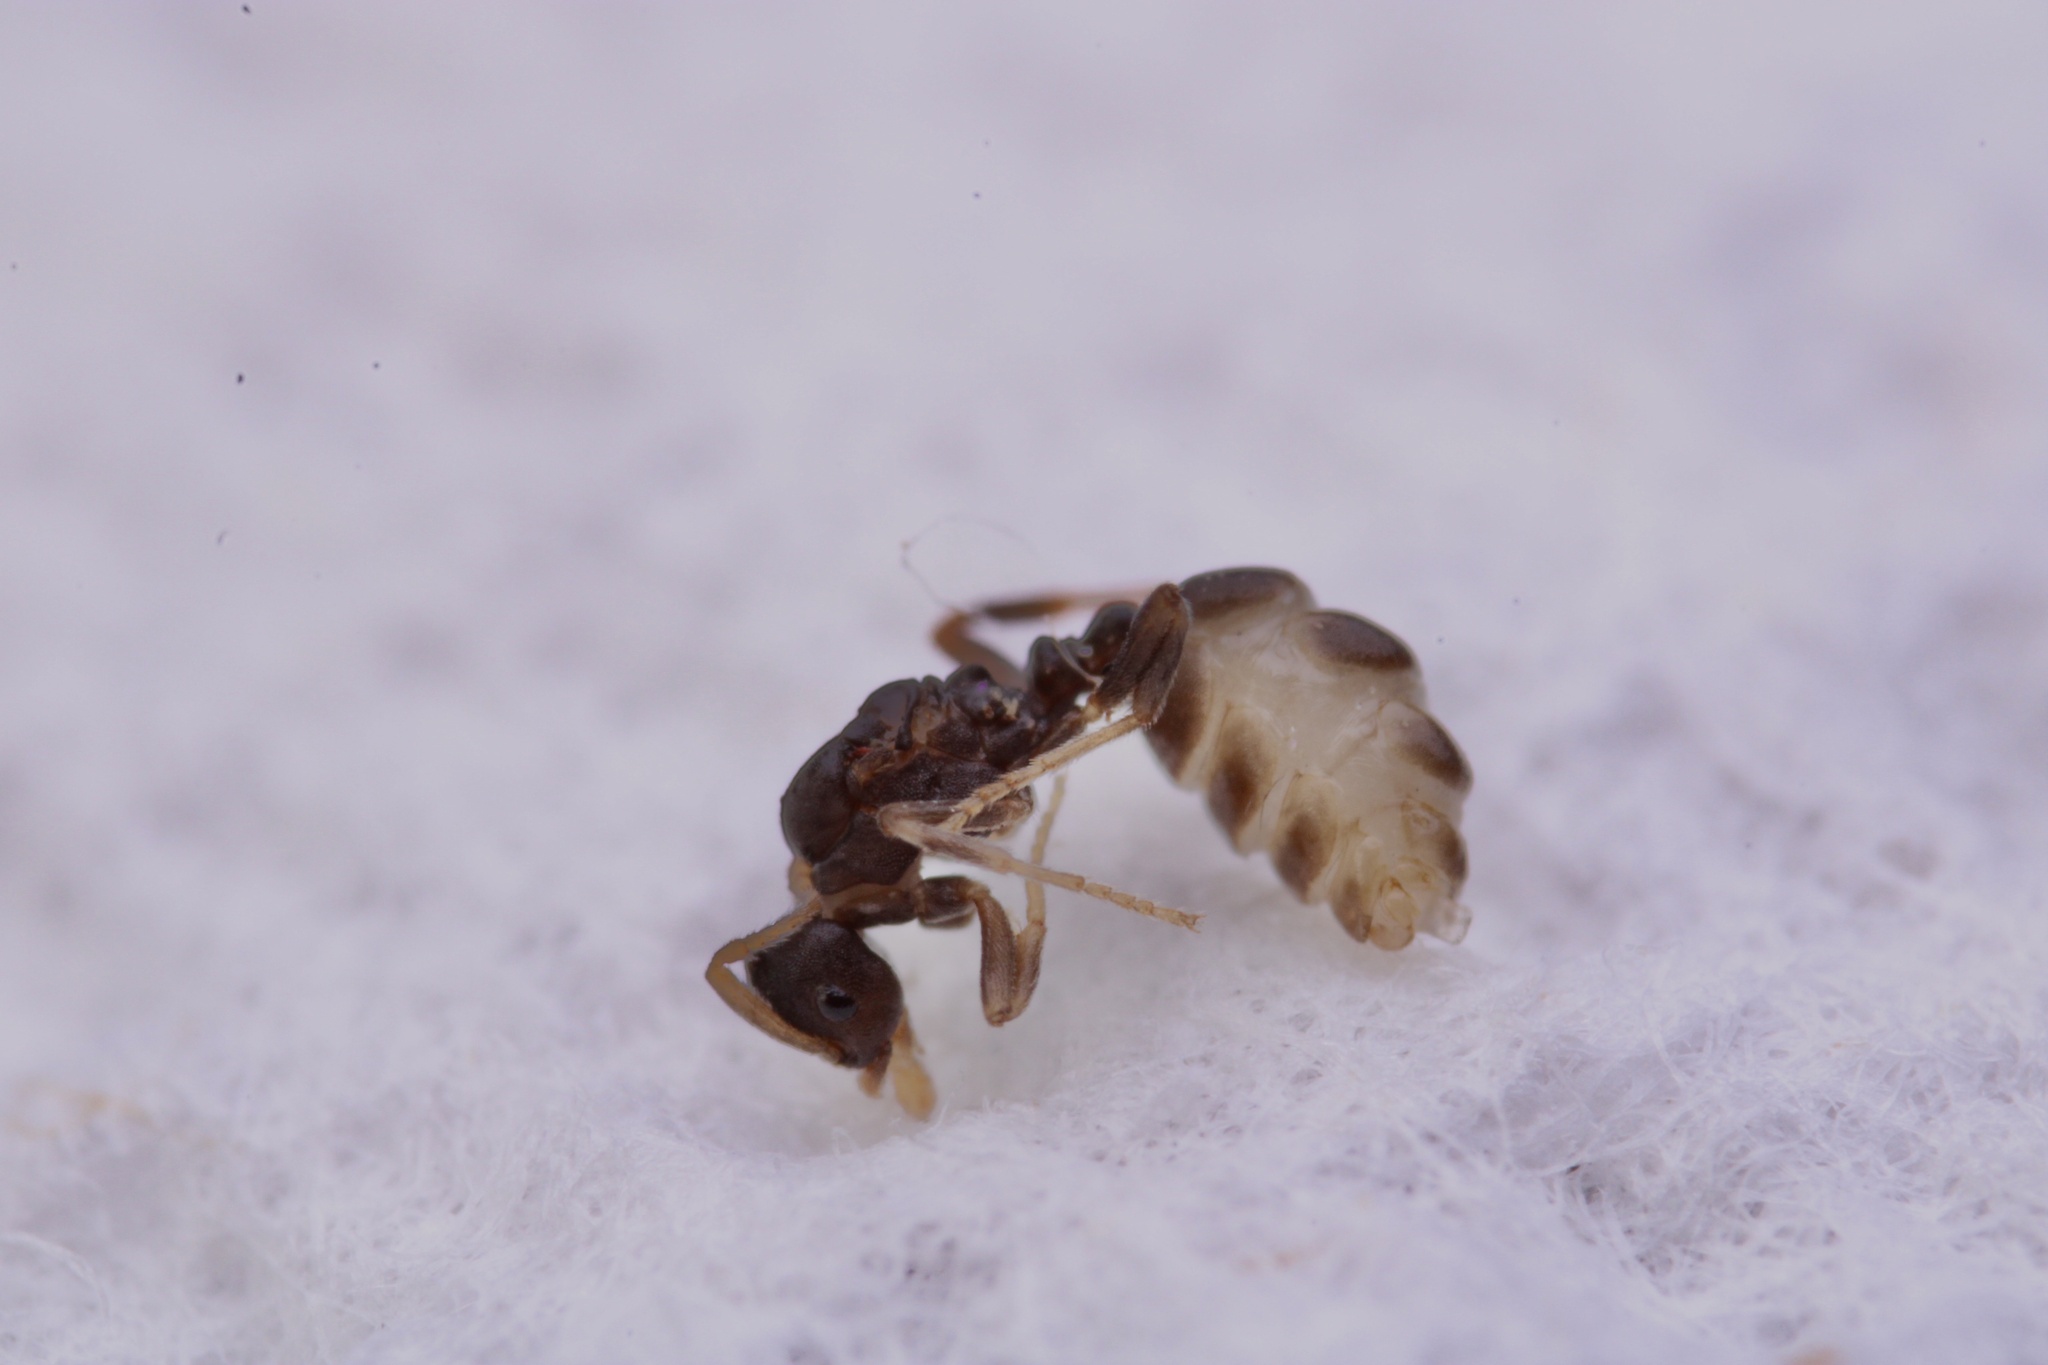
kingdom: Animalia
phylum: Arthropoda
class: Insecta
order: Hymenoptera
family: Formicidae
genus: Anergates
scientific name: Anergates atratulus
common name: Ant
